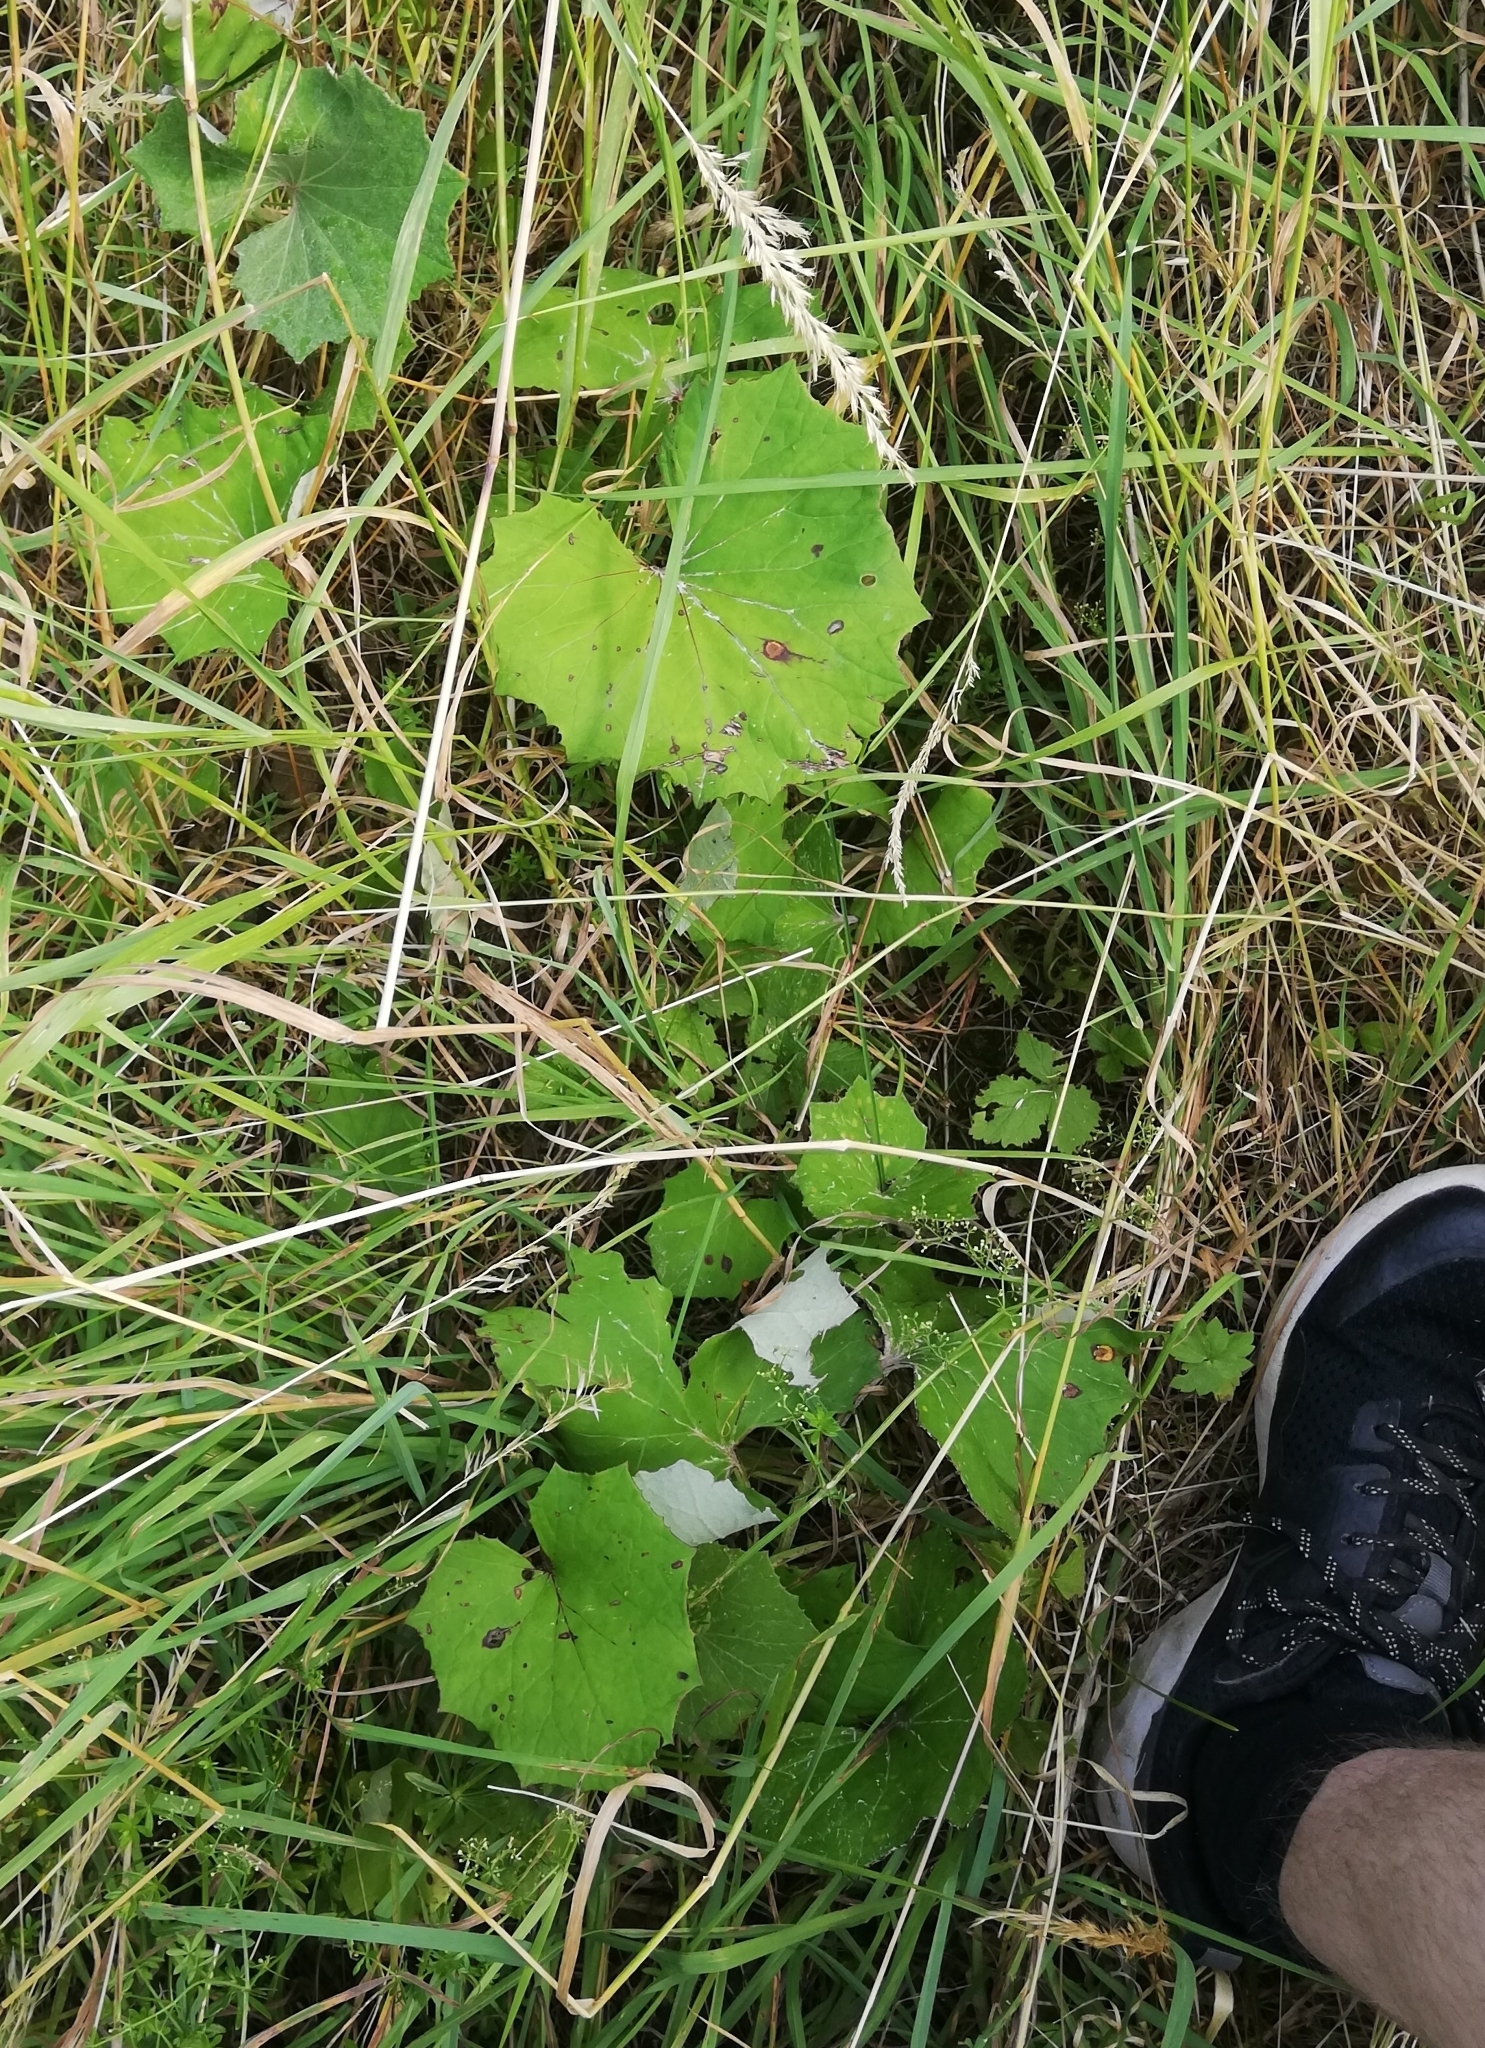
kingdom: Plantae
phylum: Tracheophyta
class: Magnoliopsida
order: Asterales
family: Asteraceae
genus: Tussilago
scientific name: Tussilago farfara
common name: Coltsfoot
